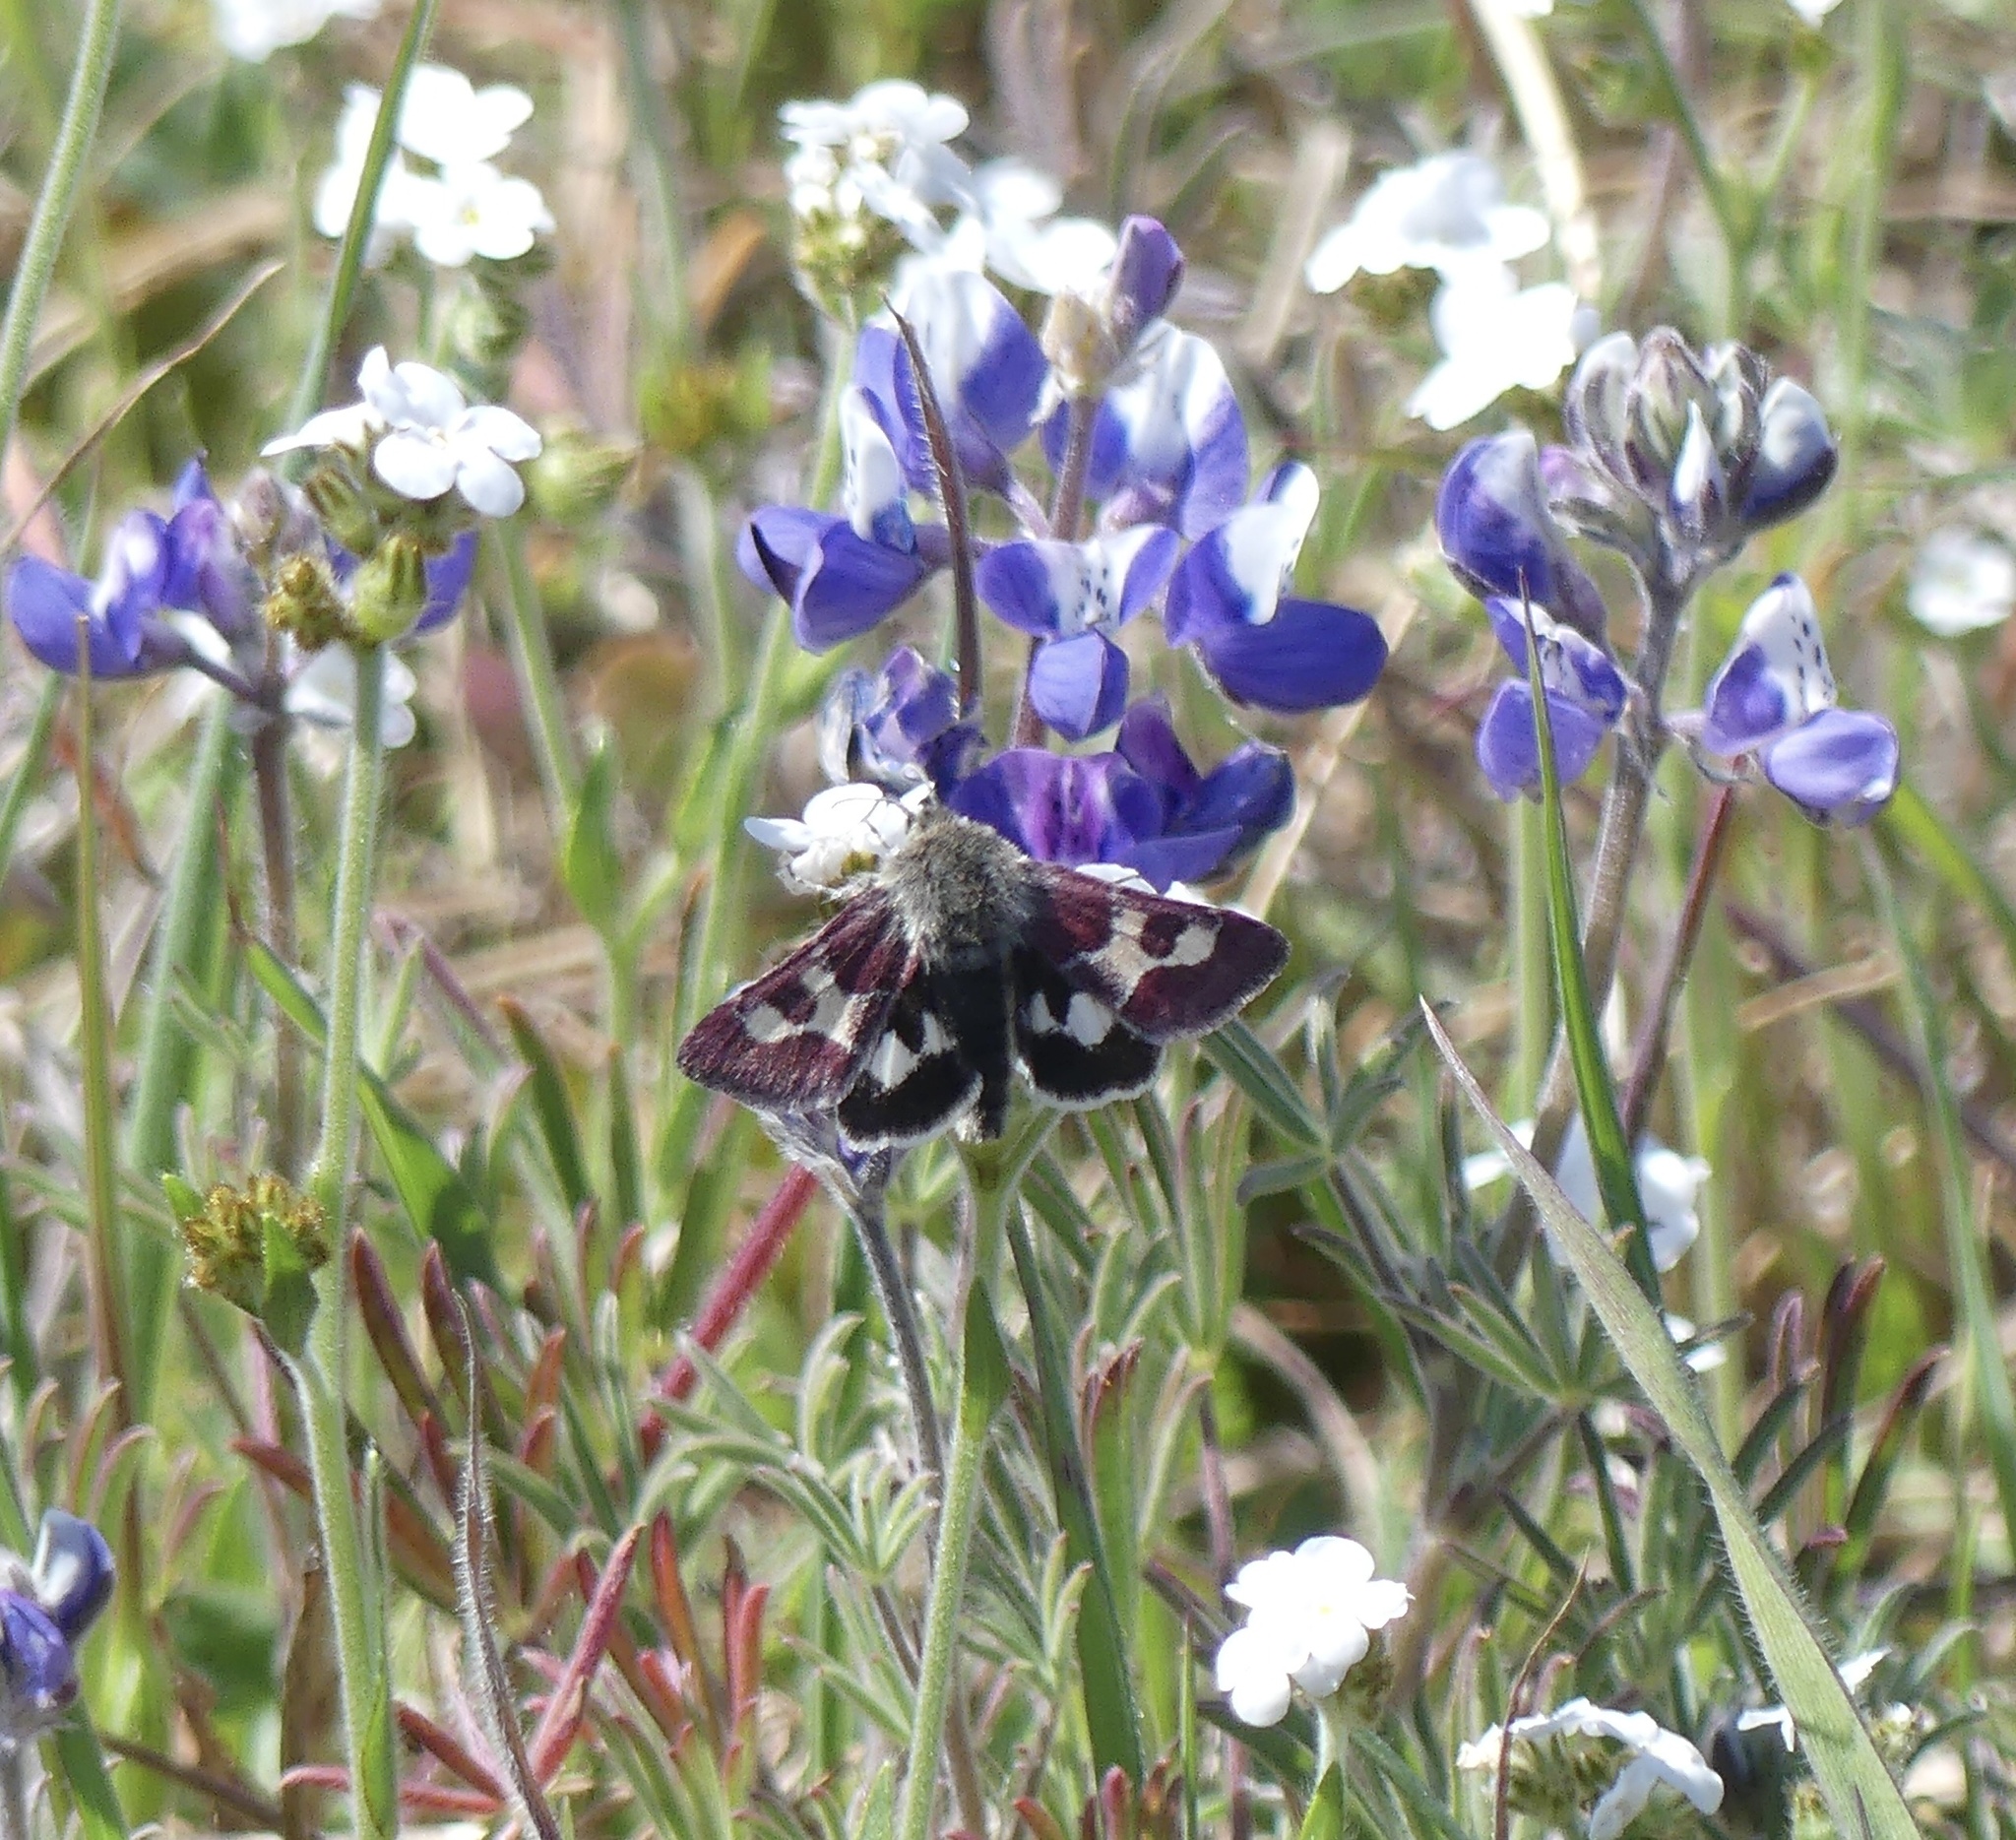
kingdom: Animalia
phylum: Arthropoda
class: Insecta
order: Lepidoptera
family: Noctuidae
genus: Schinia
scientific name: Schinia suetus
